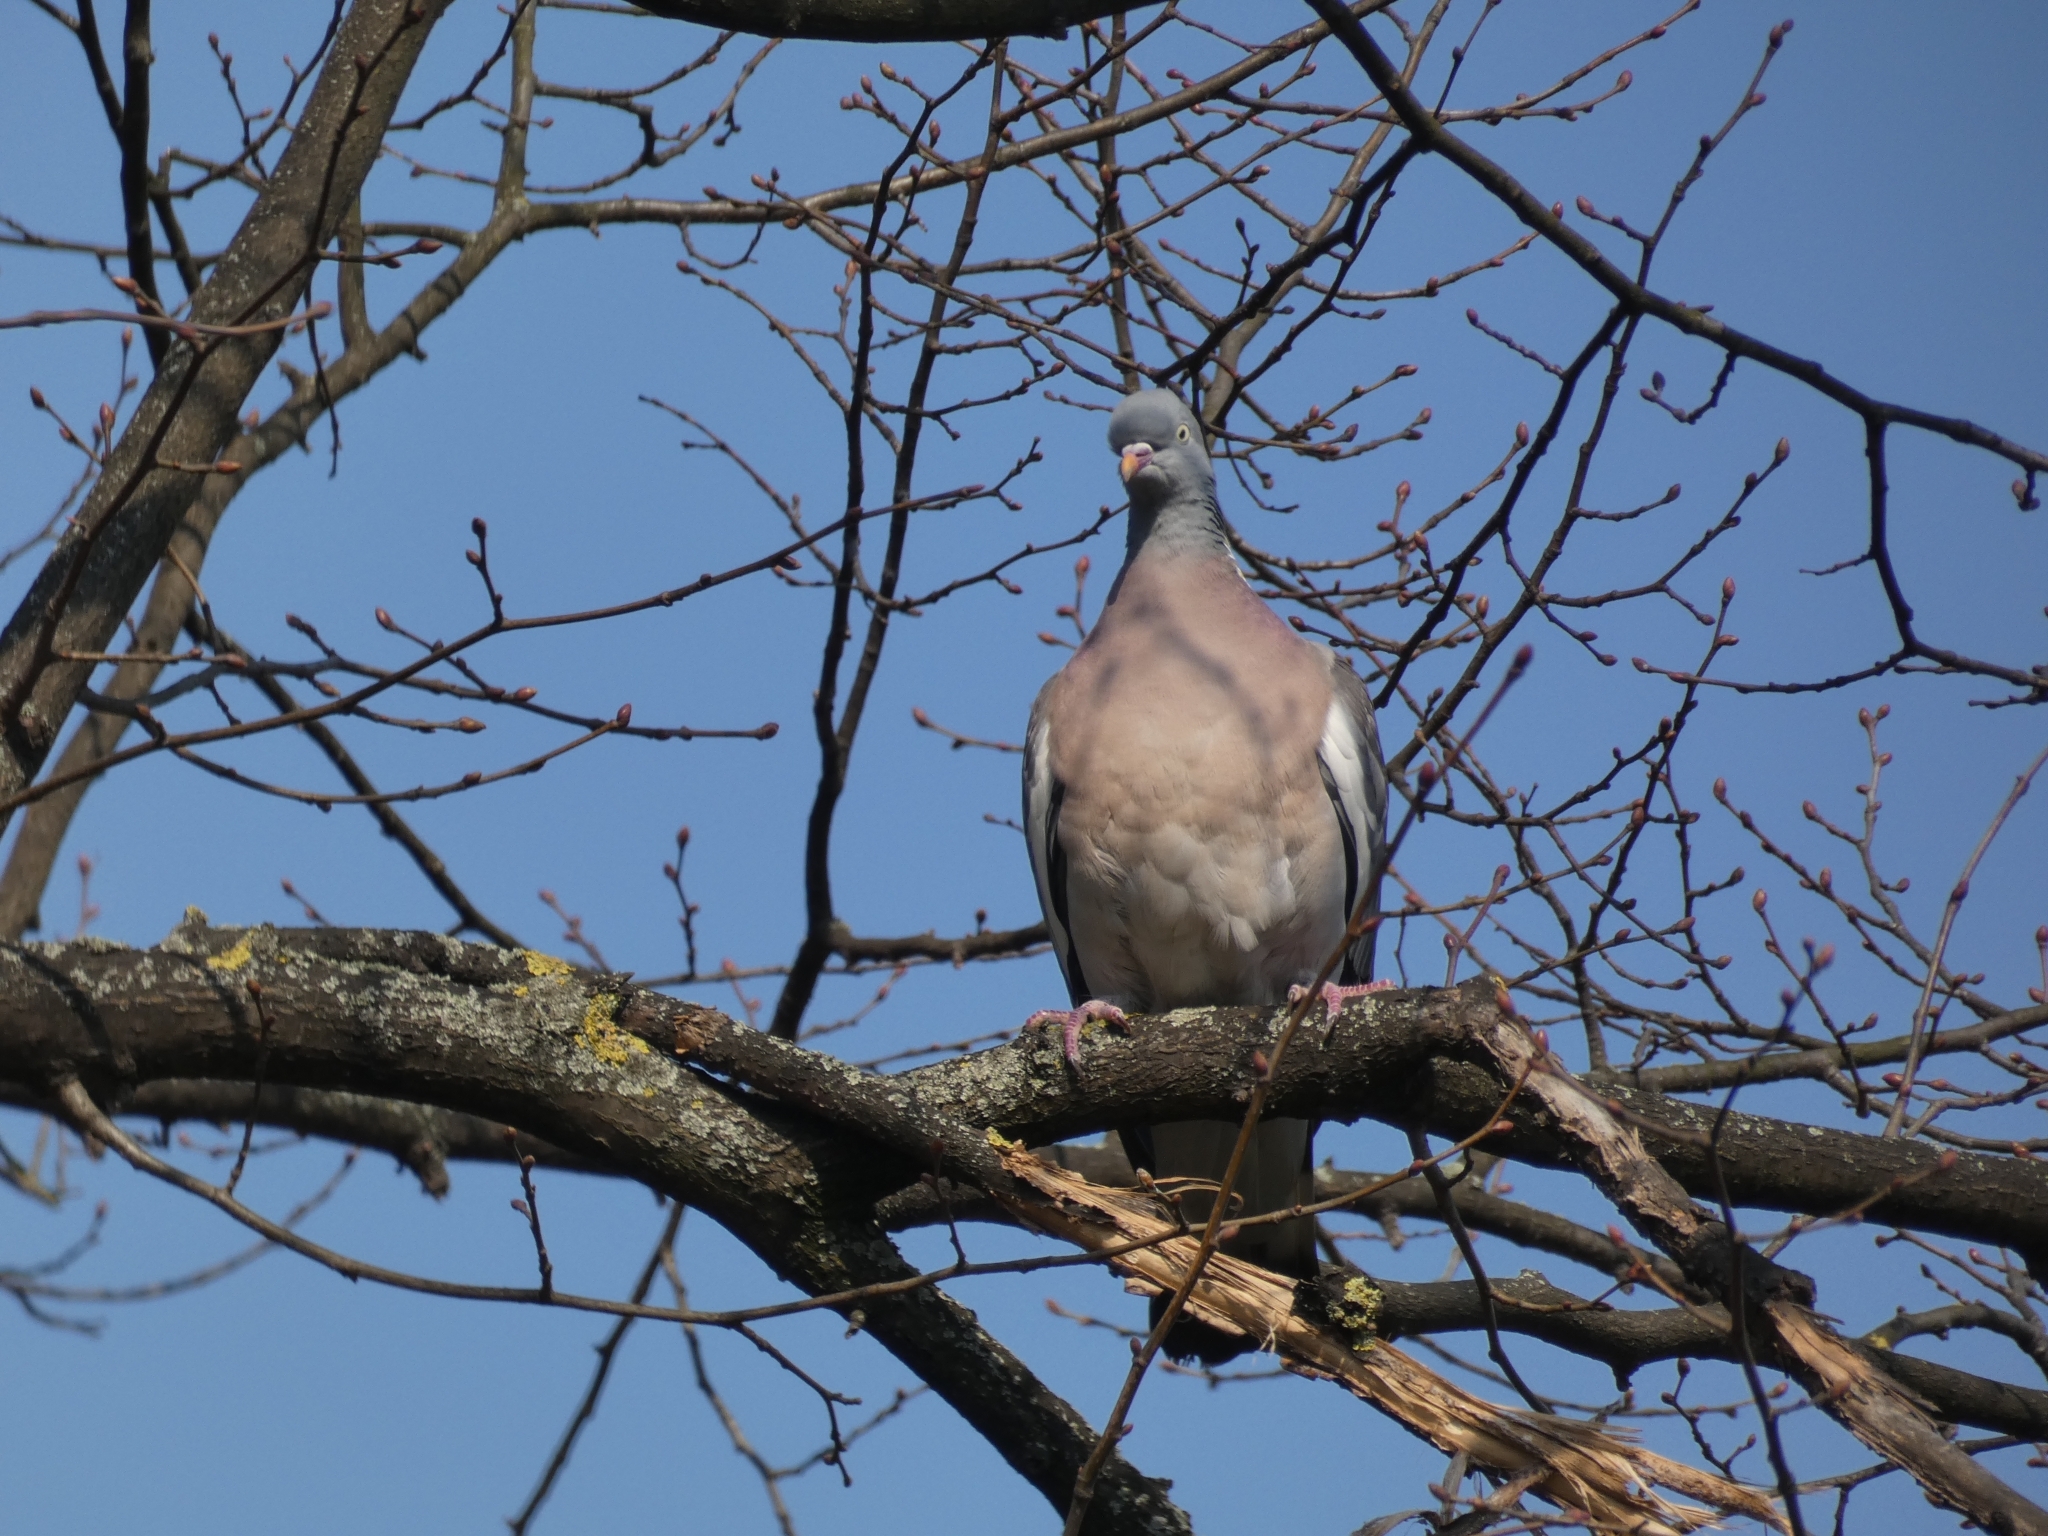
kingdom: Animalia
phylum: Chordata
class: Aves
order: Columbiformes
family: Columbidae
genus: Columba
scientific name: Columba palumbus
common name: Common wood pigeon
